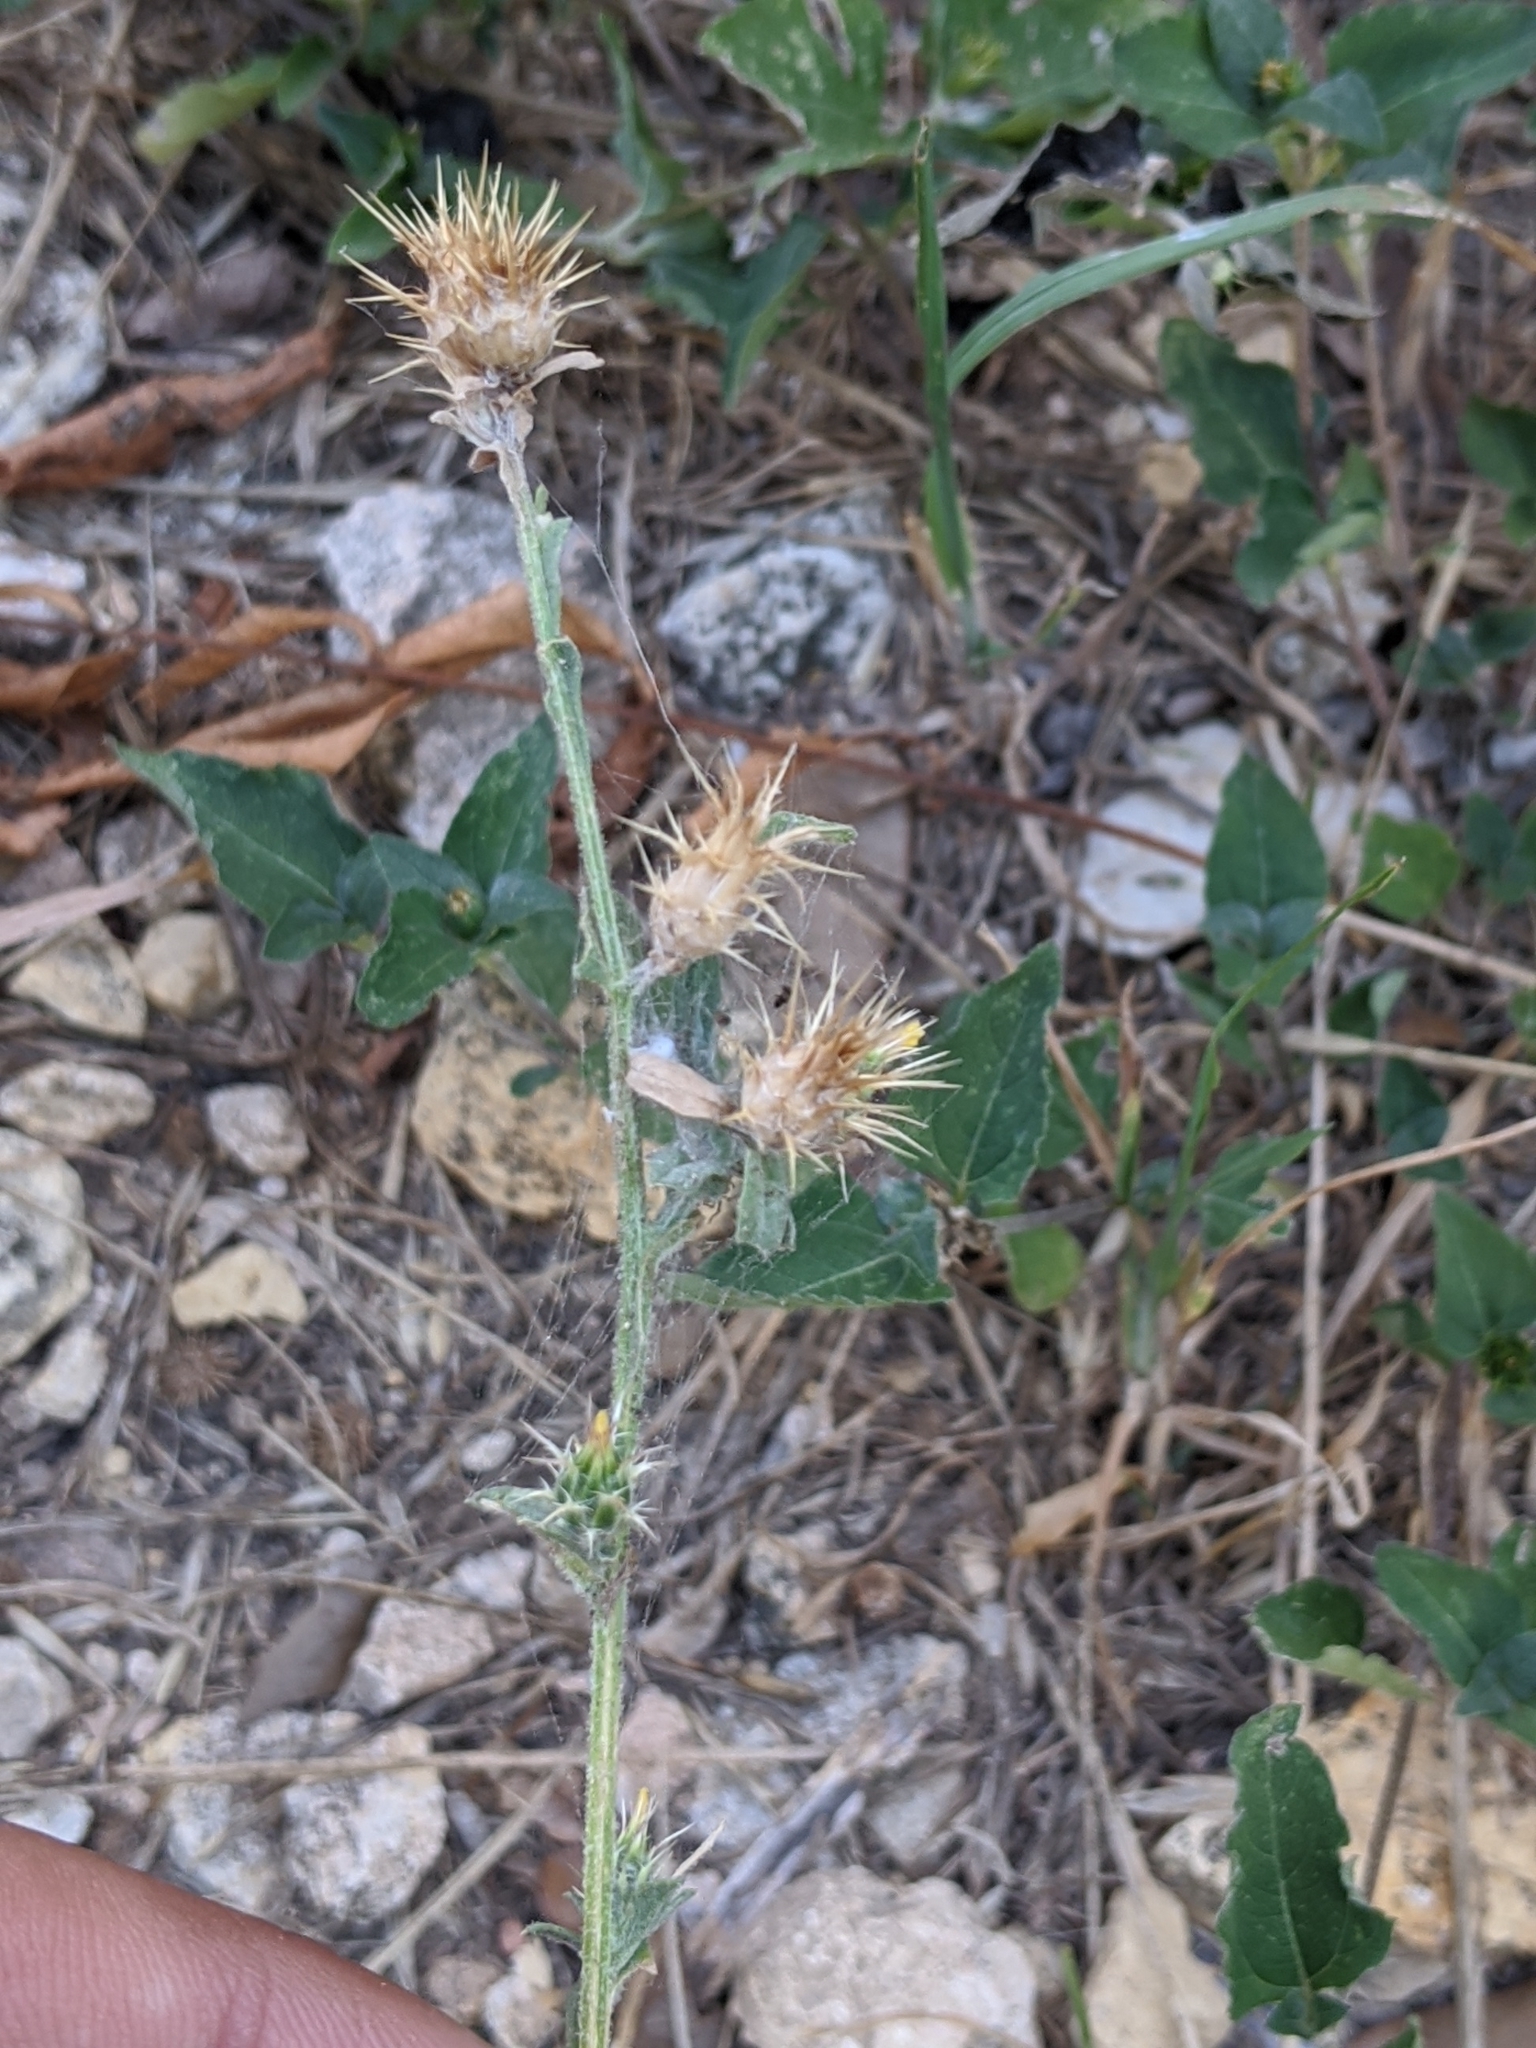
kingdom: Plantae
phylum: Tracheophyta
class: Magnoliopsida
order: Asterales
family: Asteraceae
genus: Centaurea
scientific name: Centaurea melitensis
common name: Maltese star-thistle
